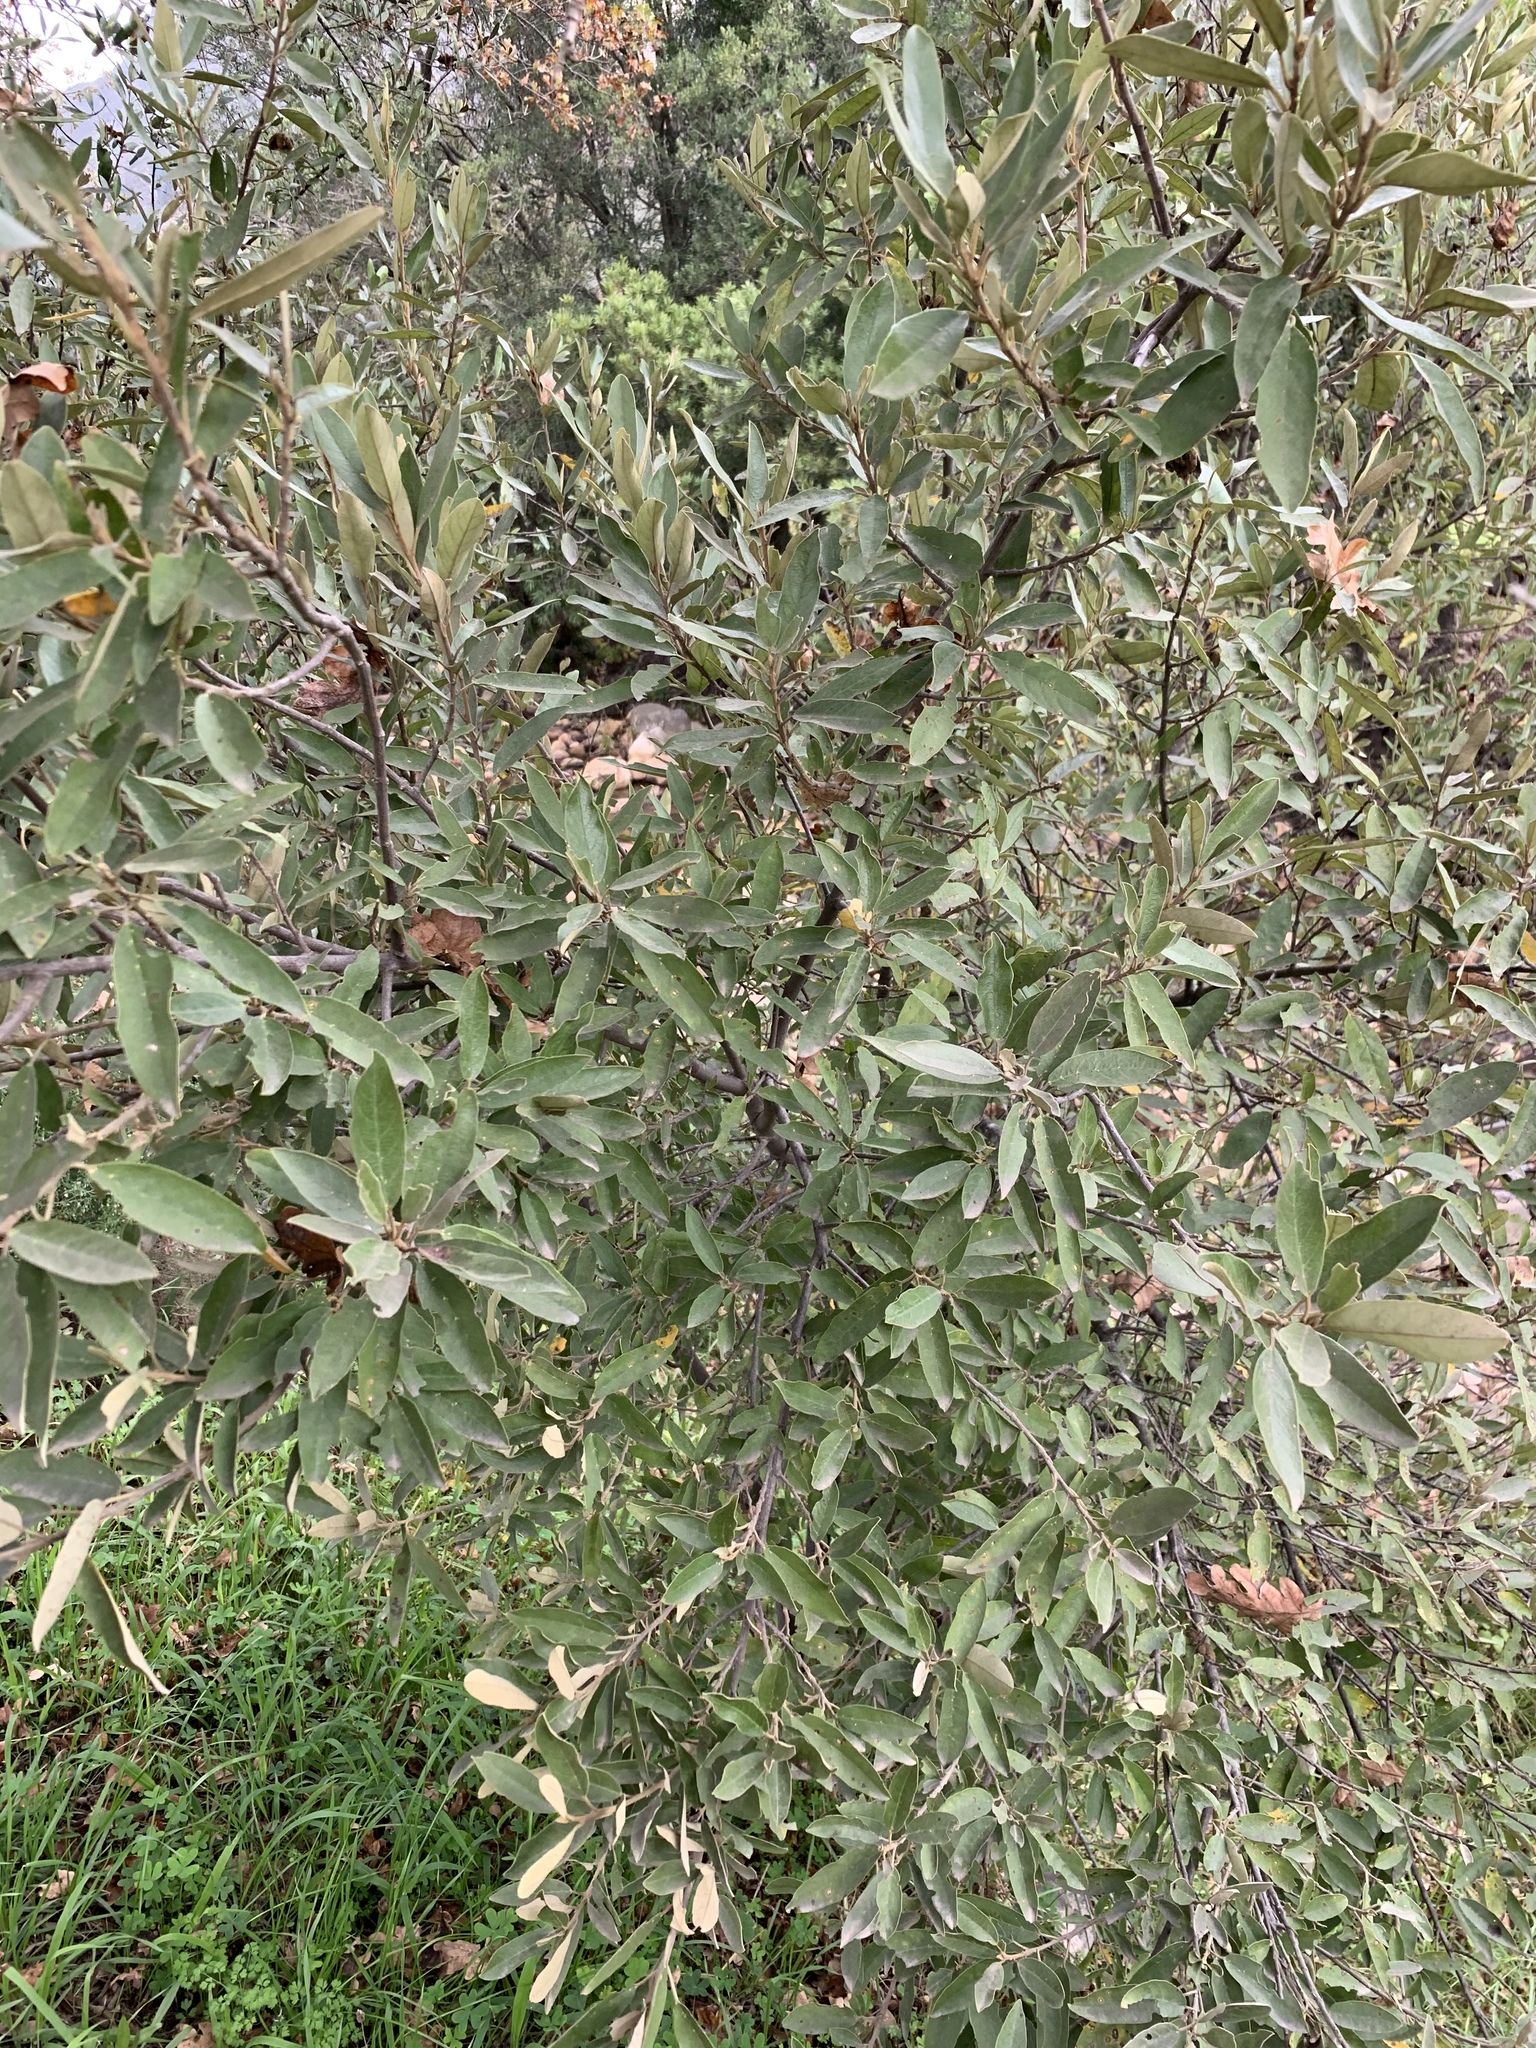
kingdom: Plantae
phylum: Tracheophyta
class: Magnoliopsida
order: Malpighiales
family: Achariaceae
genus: Kiggelaria
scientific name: Kiggelaria africana
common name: Wild peach
